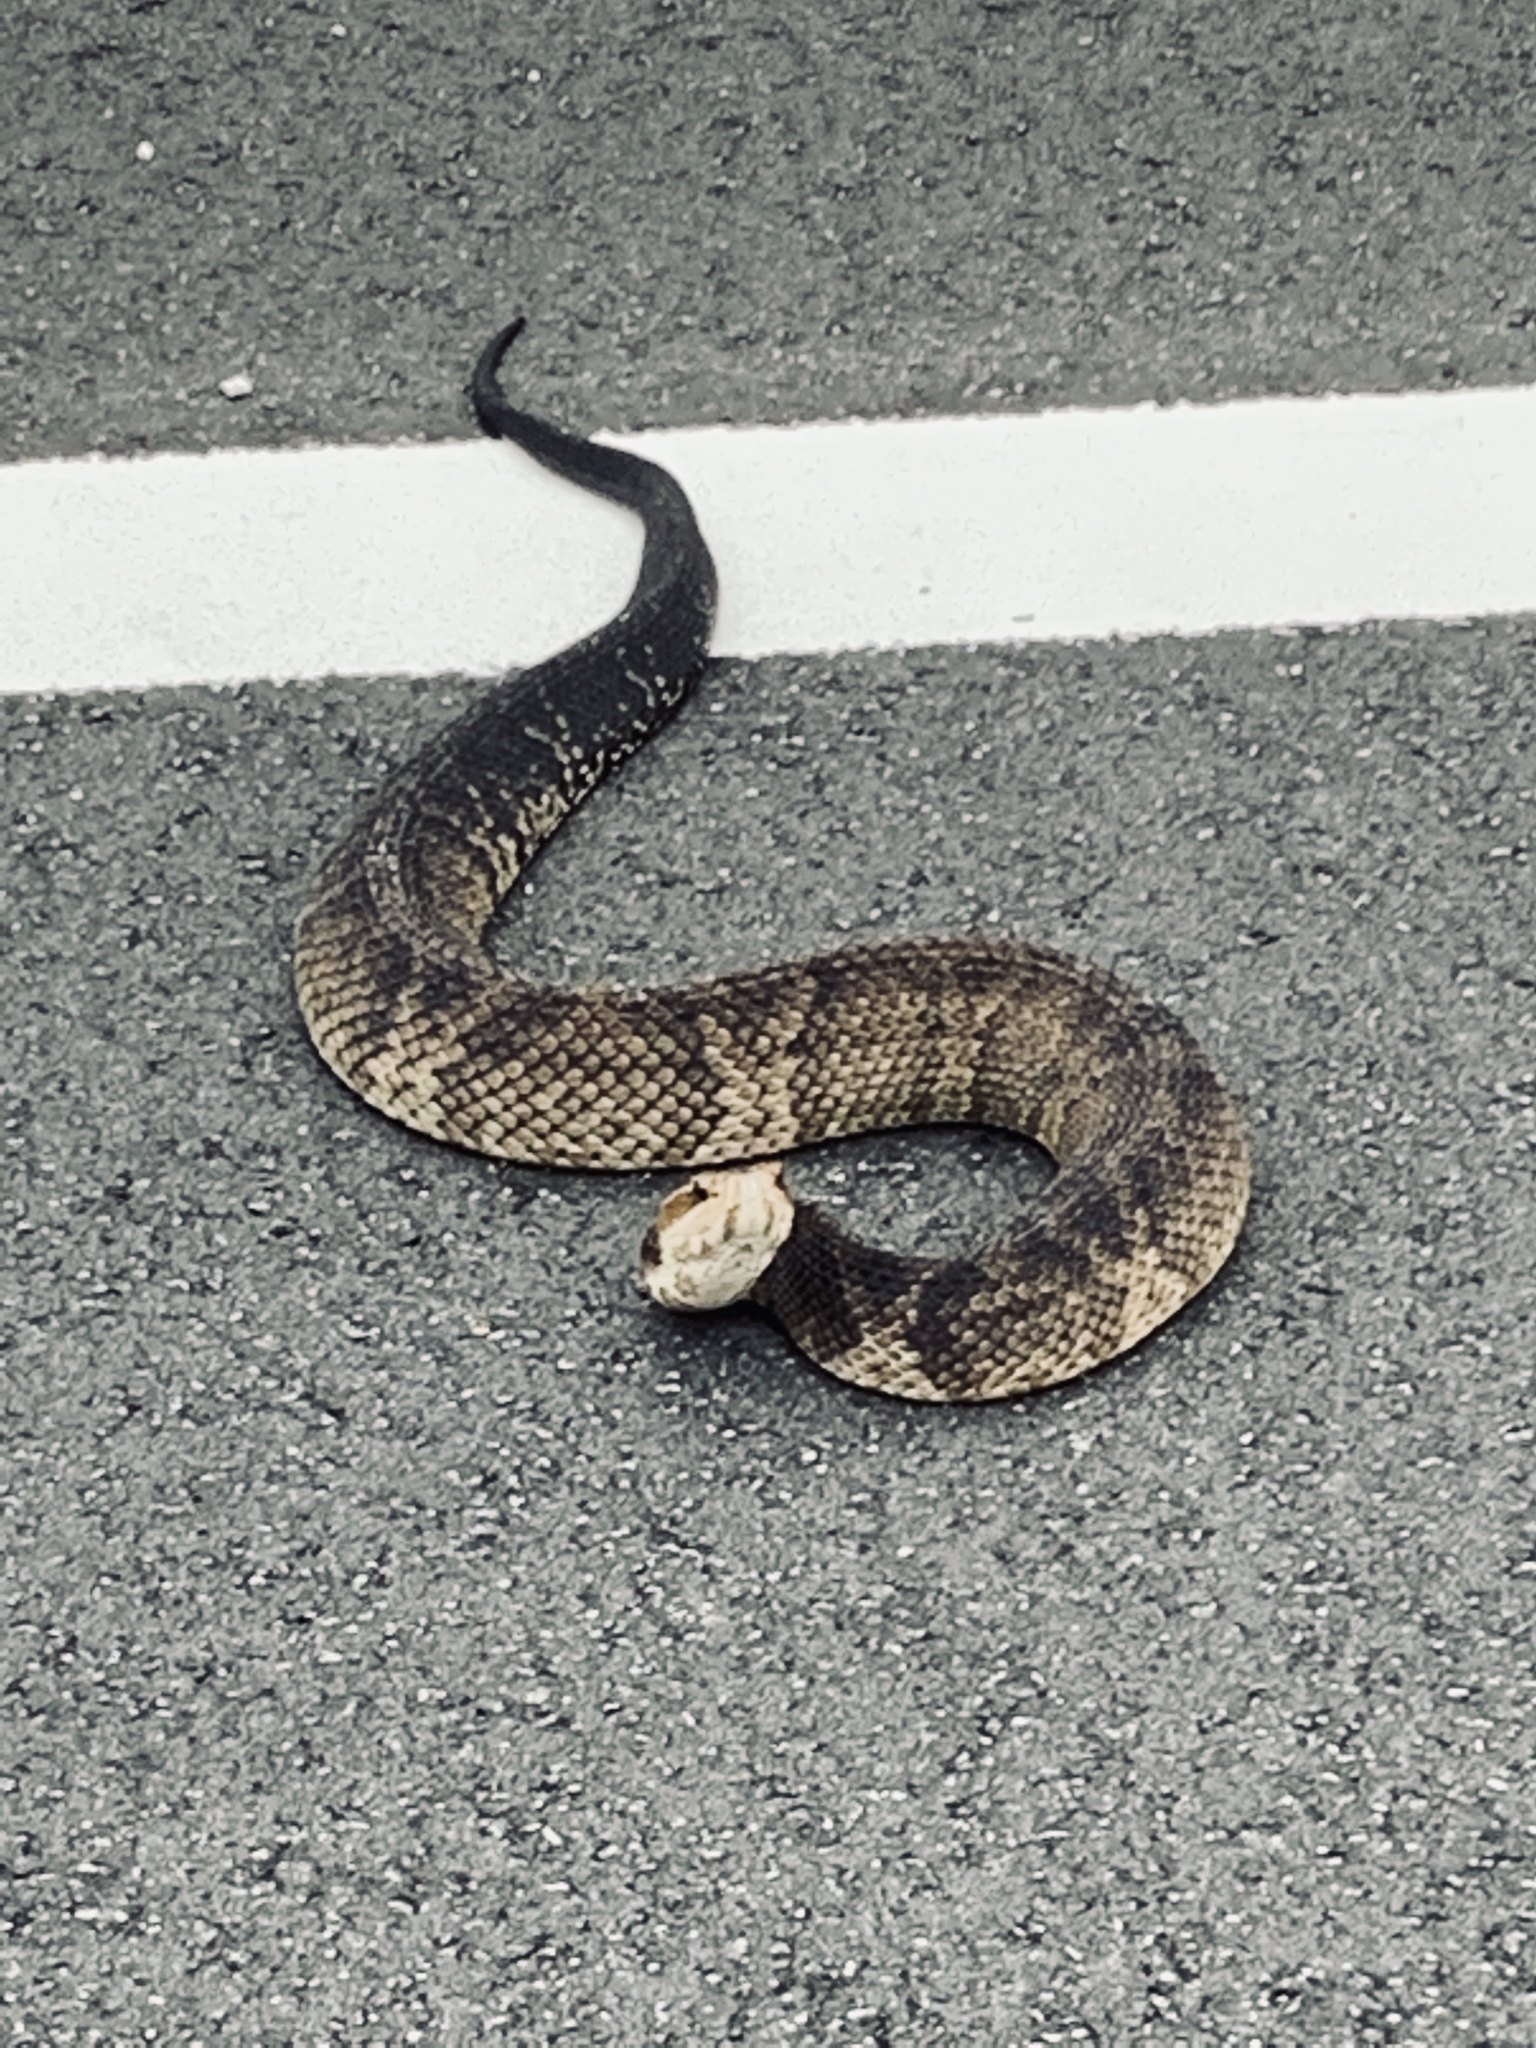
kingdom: Animalia
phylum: Chordata
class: Squamata
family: Viperidae
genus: Agkistrodon
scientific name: Agkistrodon conanti
